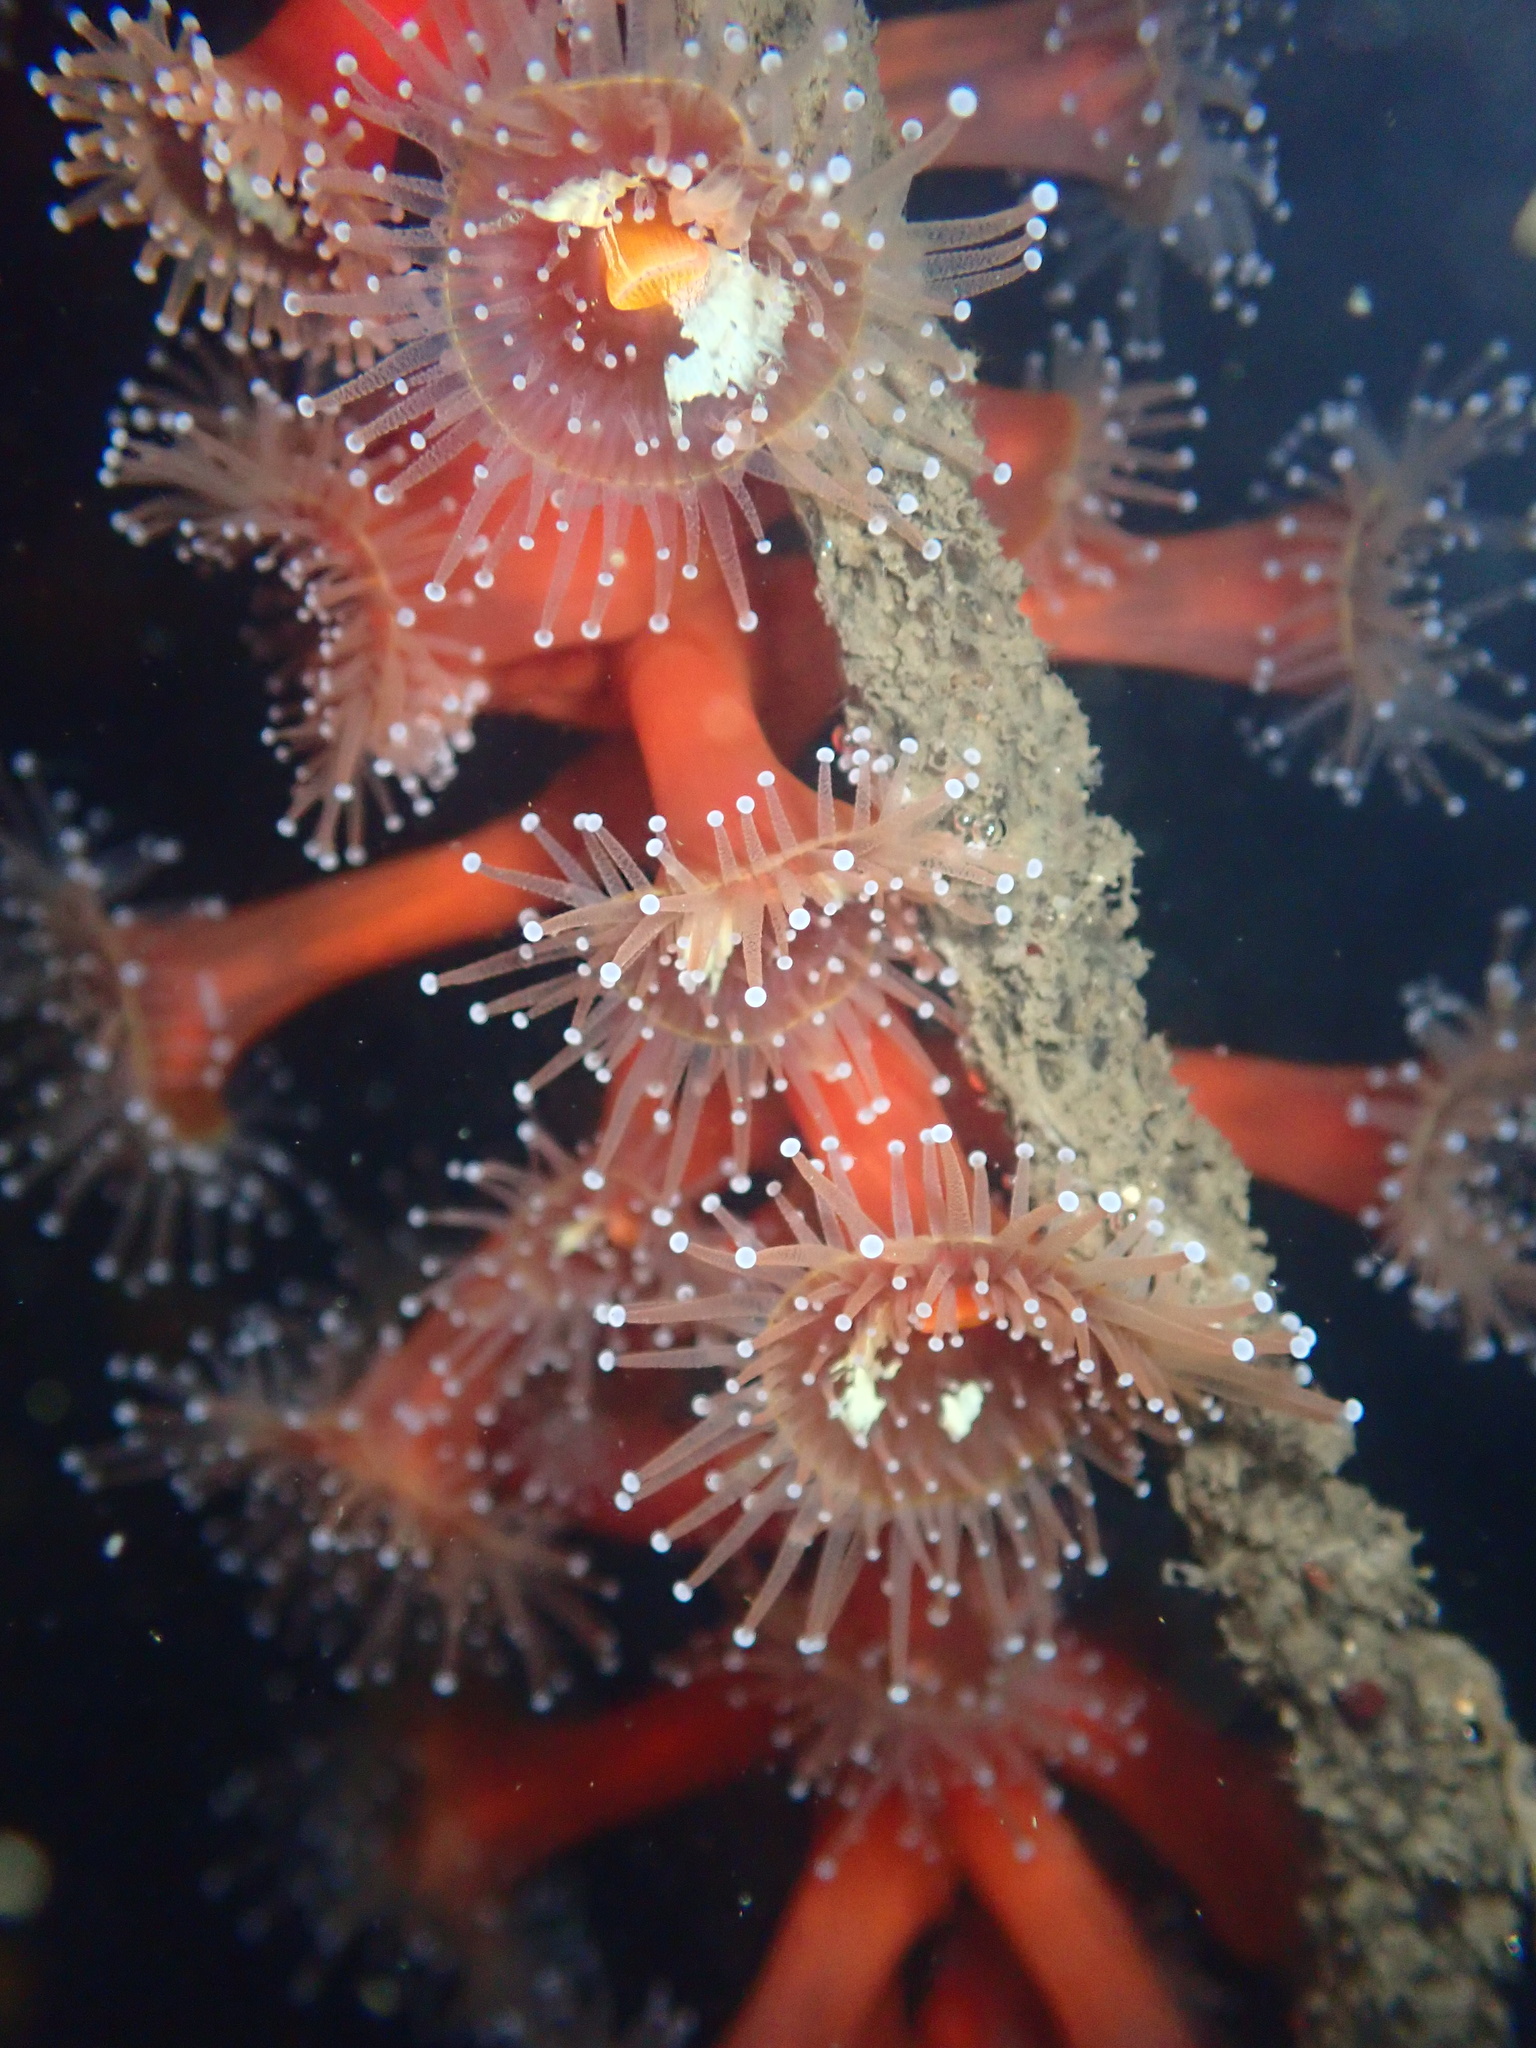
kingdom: Animalia
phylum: Cnidaria
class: Anthozoa
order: Corallimorpharia
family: Corallimorphidae
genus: Corynactis
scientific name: Corynactis californica
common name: Strawberry corallimorpharian
